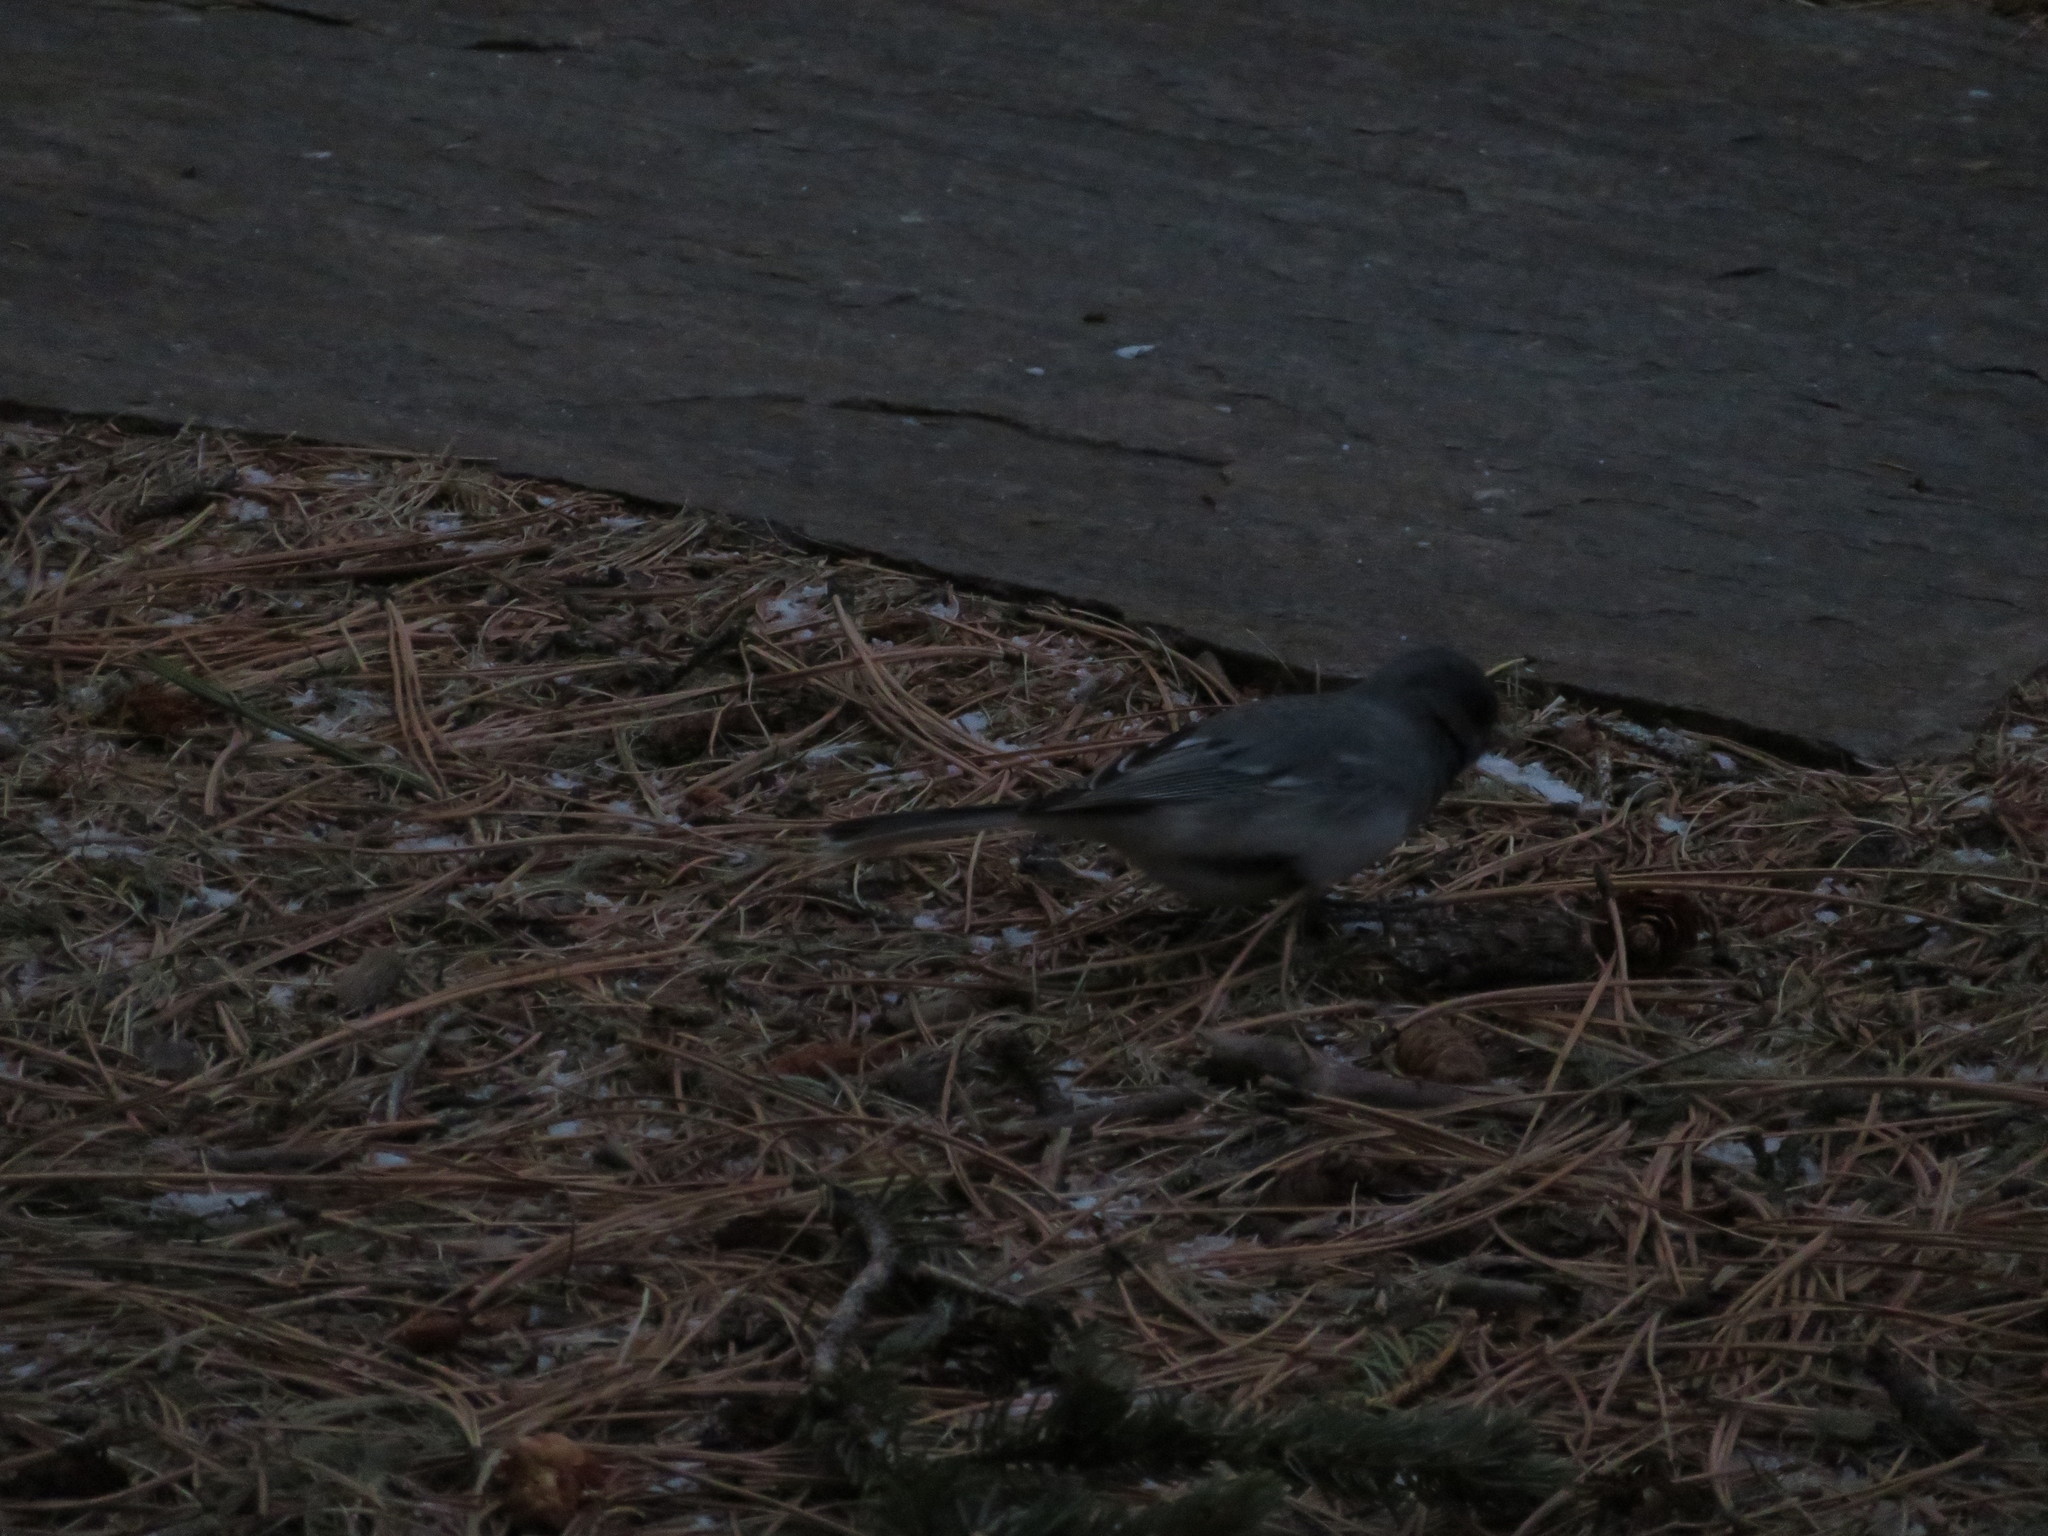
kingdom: Animalia
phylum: Chordata
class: Aves
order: Passeriformes
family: Passerellidae
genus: Junco
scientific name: Junco hyemalis
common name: Dark-eyed junco
